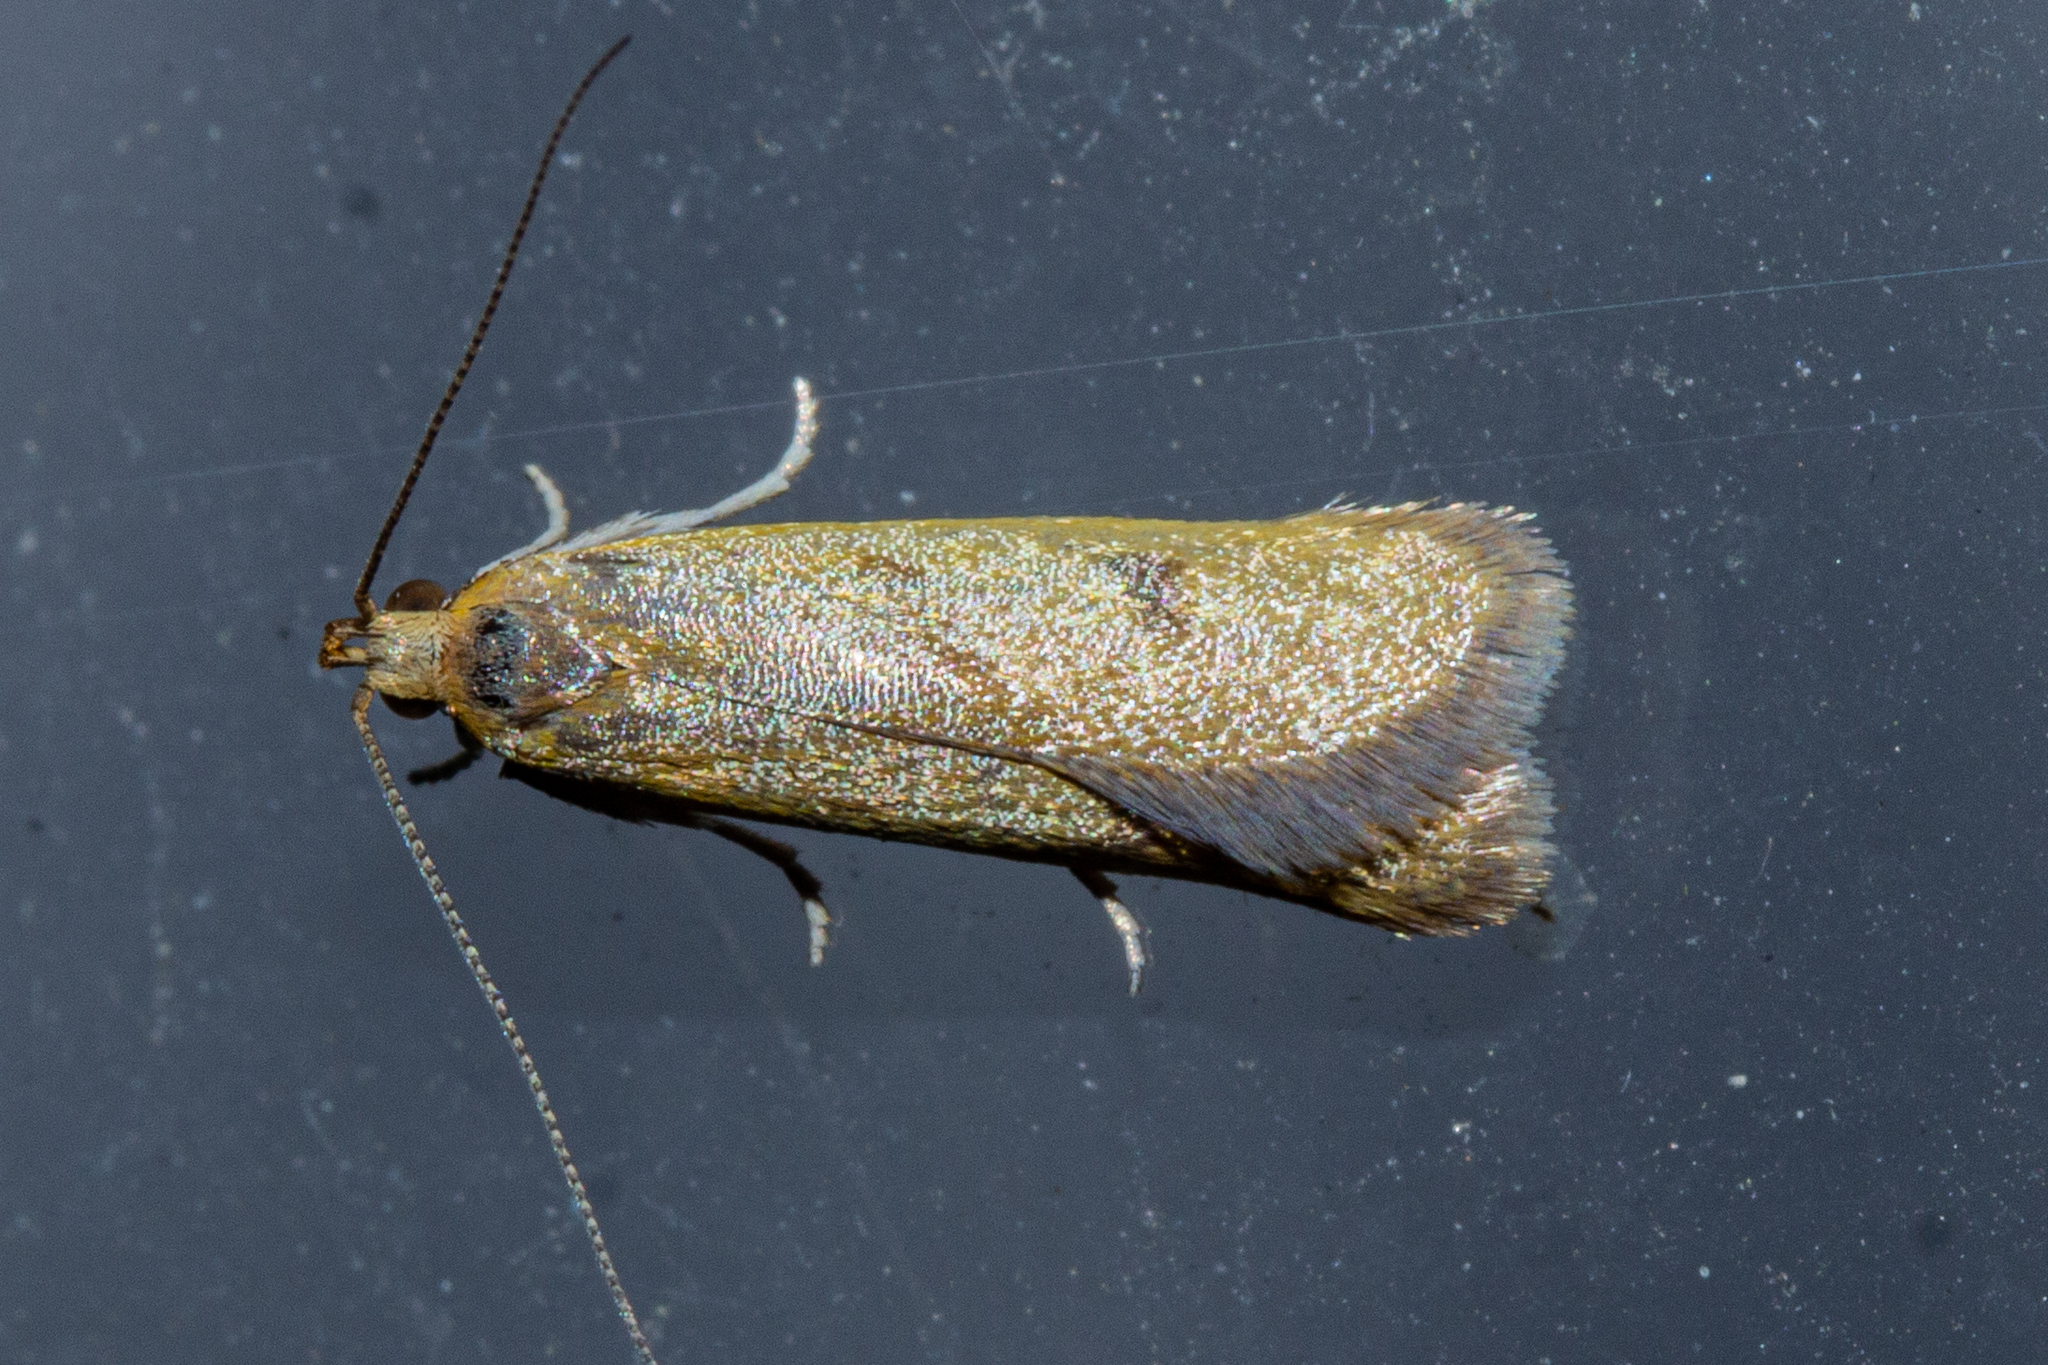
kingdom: Animalia
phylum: Arthropoda
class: Insecta
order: Lepidoptera
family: Oecophoridae
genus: Gymnobathra
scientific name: Gymnobathra parca
